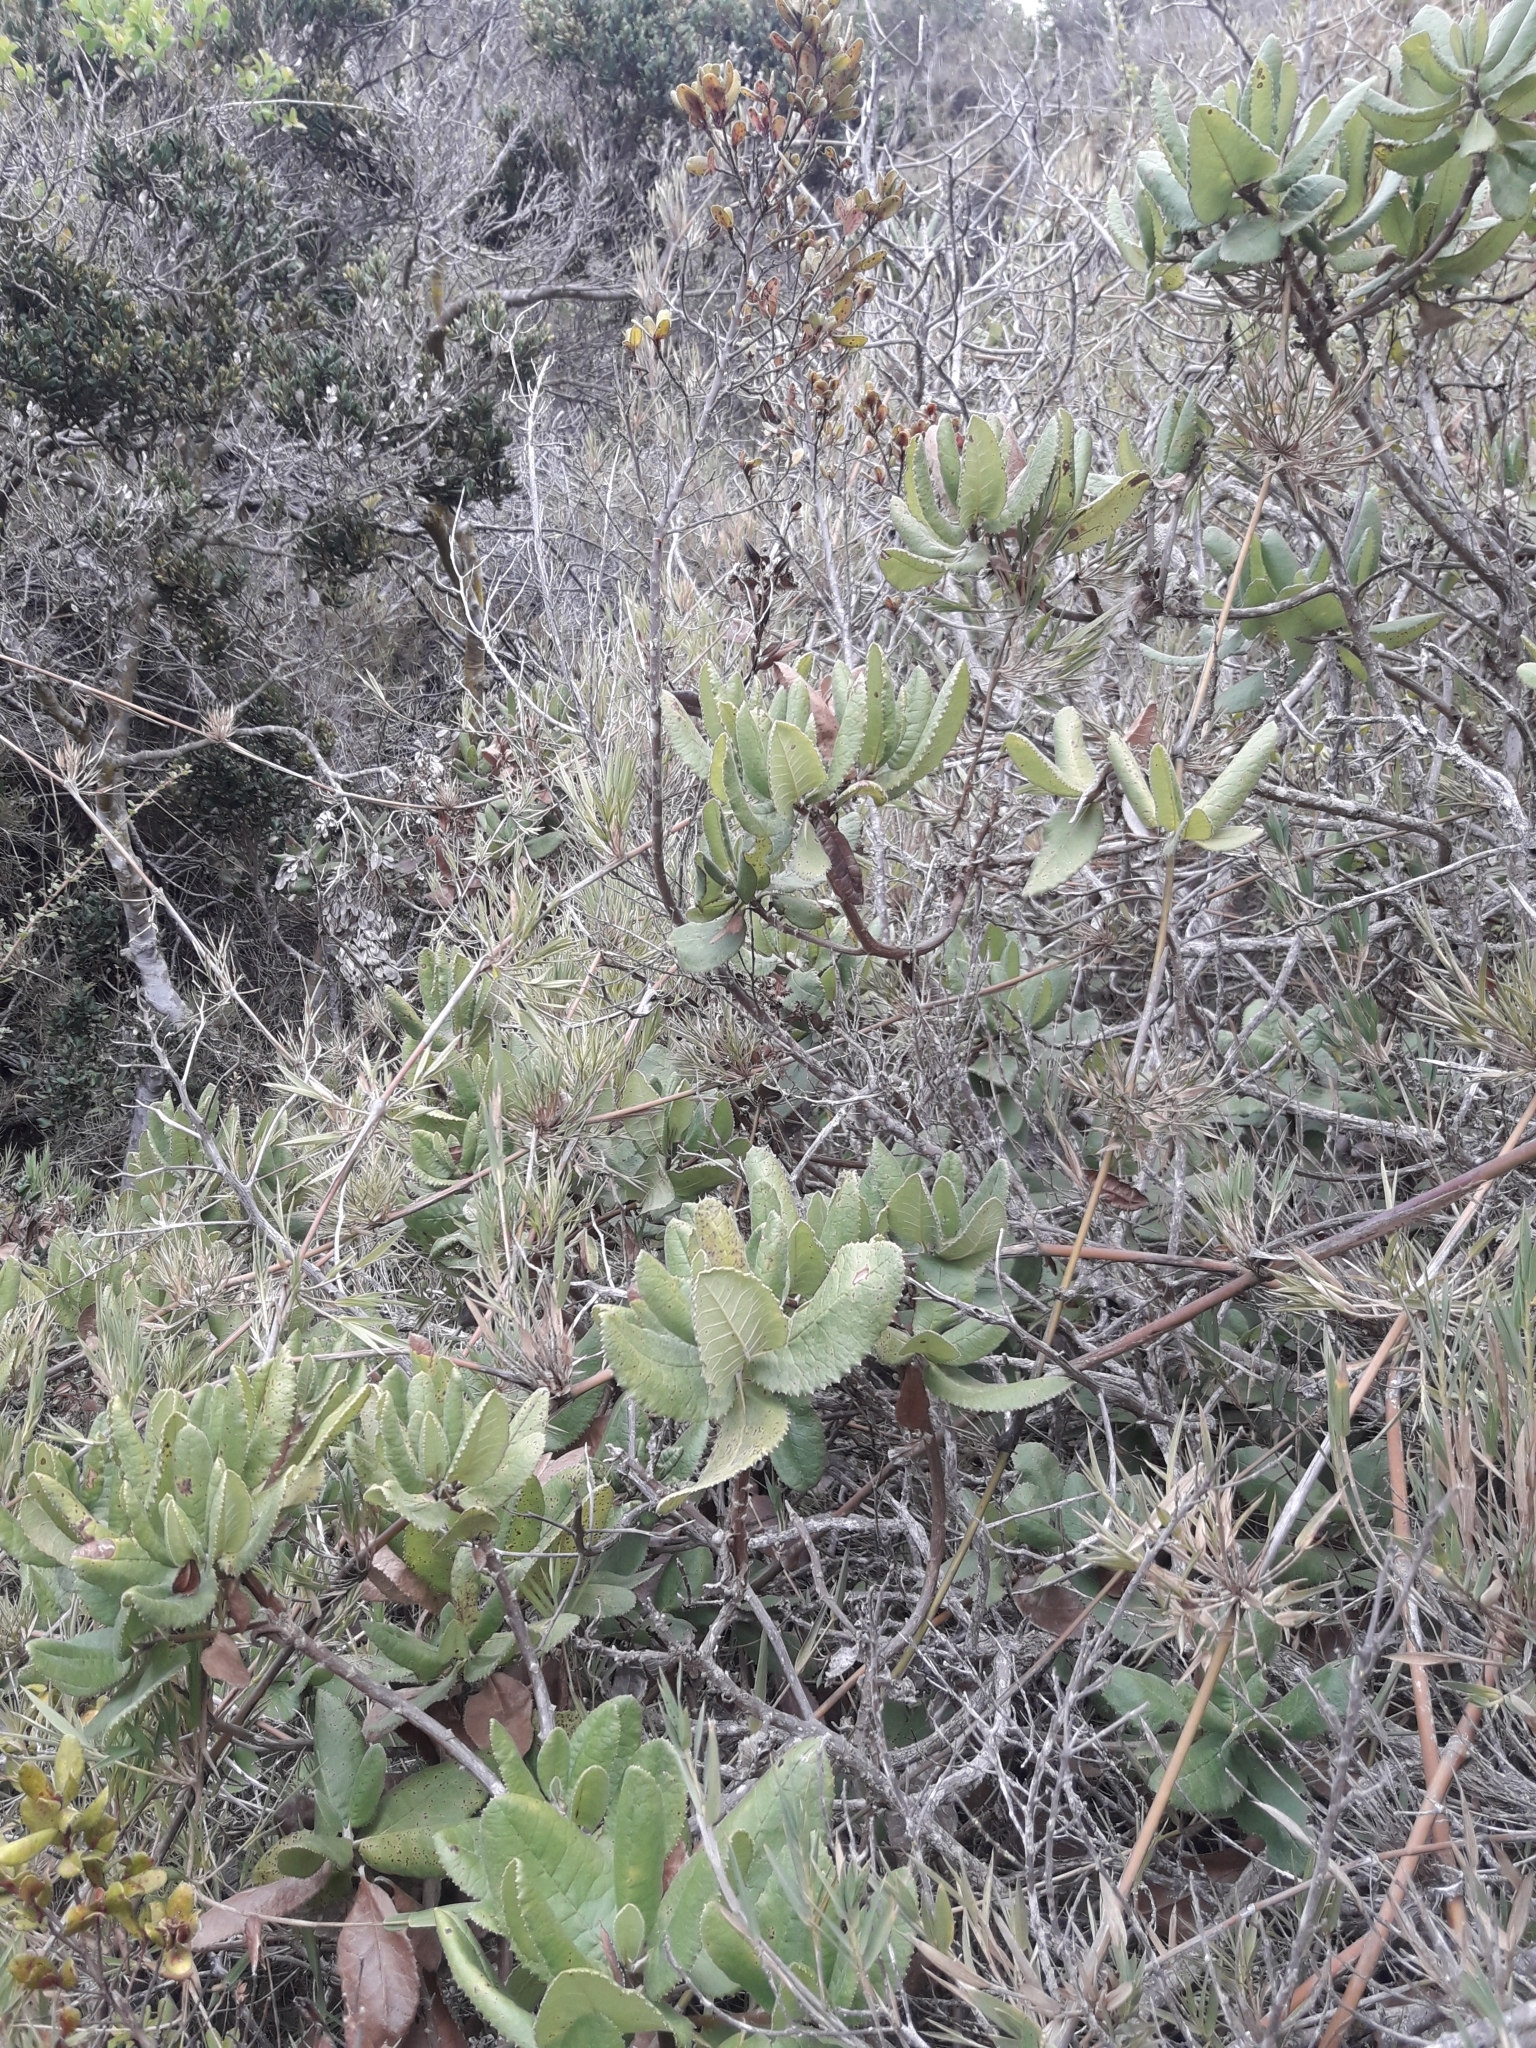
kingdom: Plantae
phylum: Tracheophyta
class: Magnoliopsida
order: Asterales
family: Asteraceae
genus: Acrisione
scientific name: Acrisione denticulata
